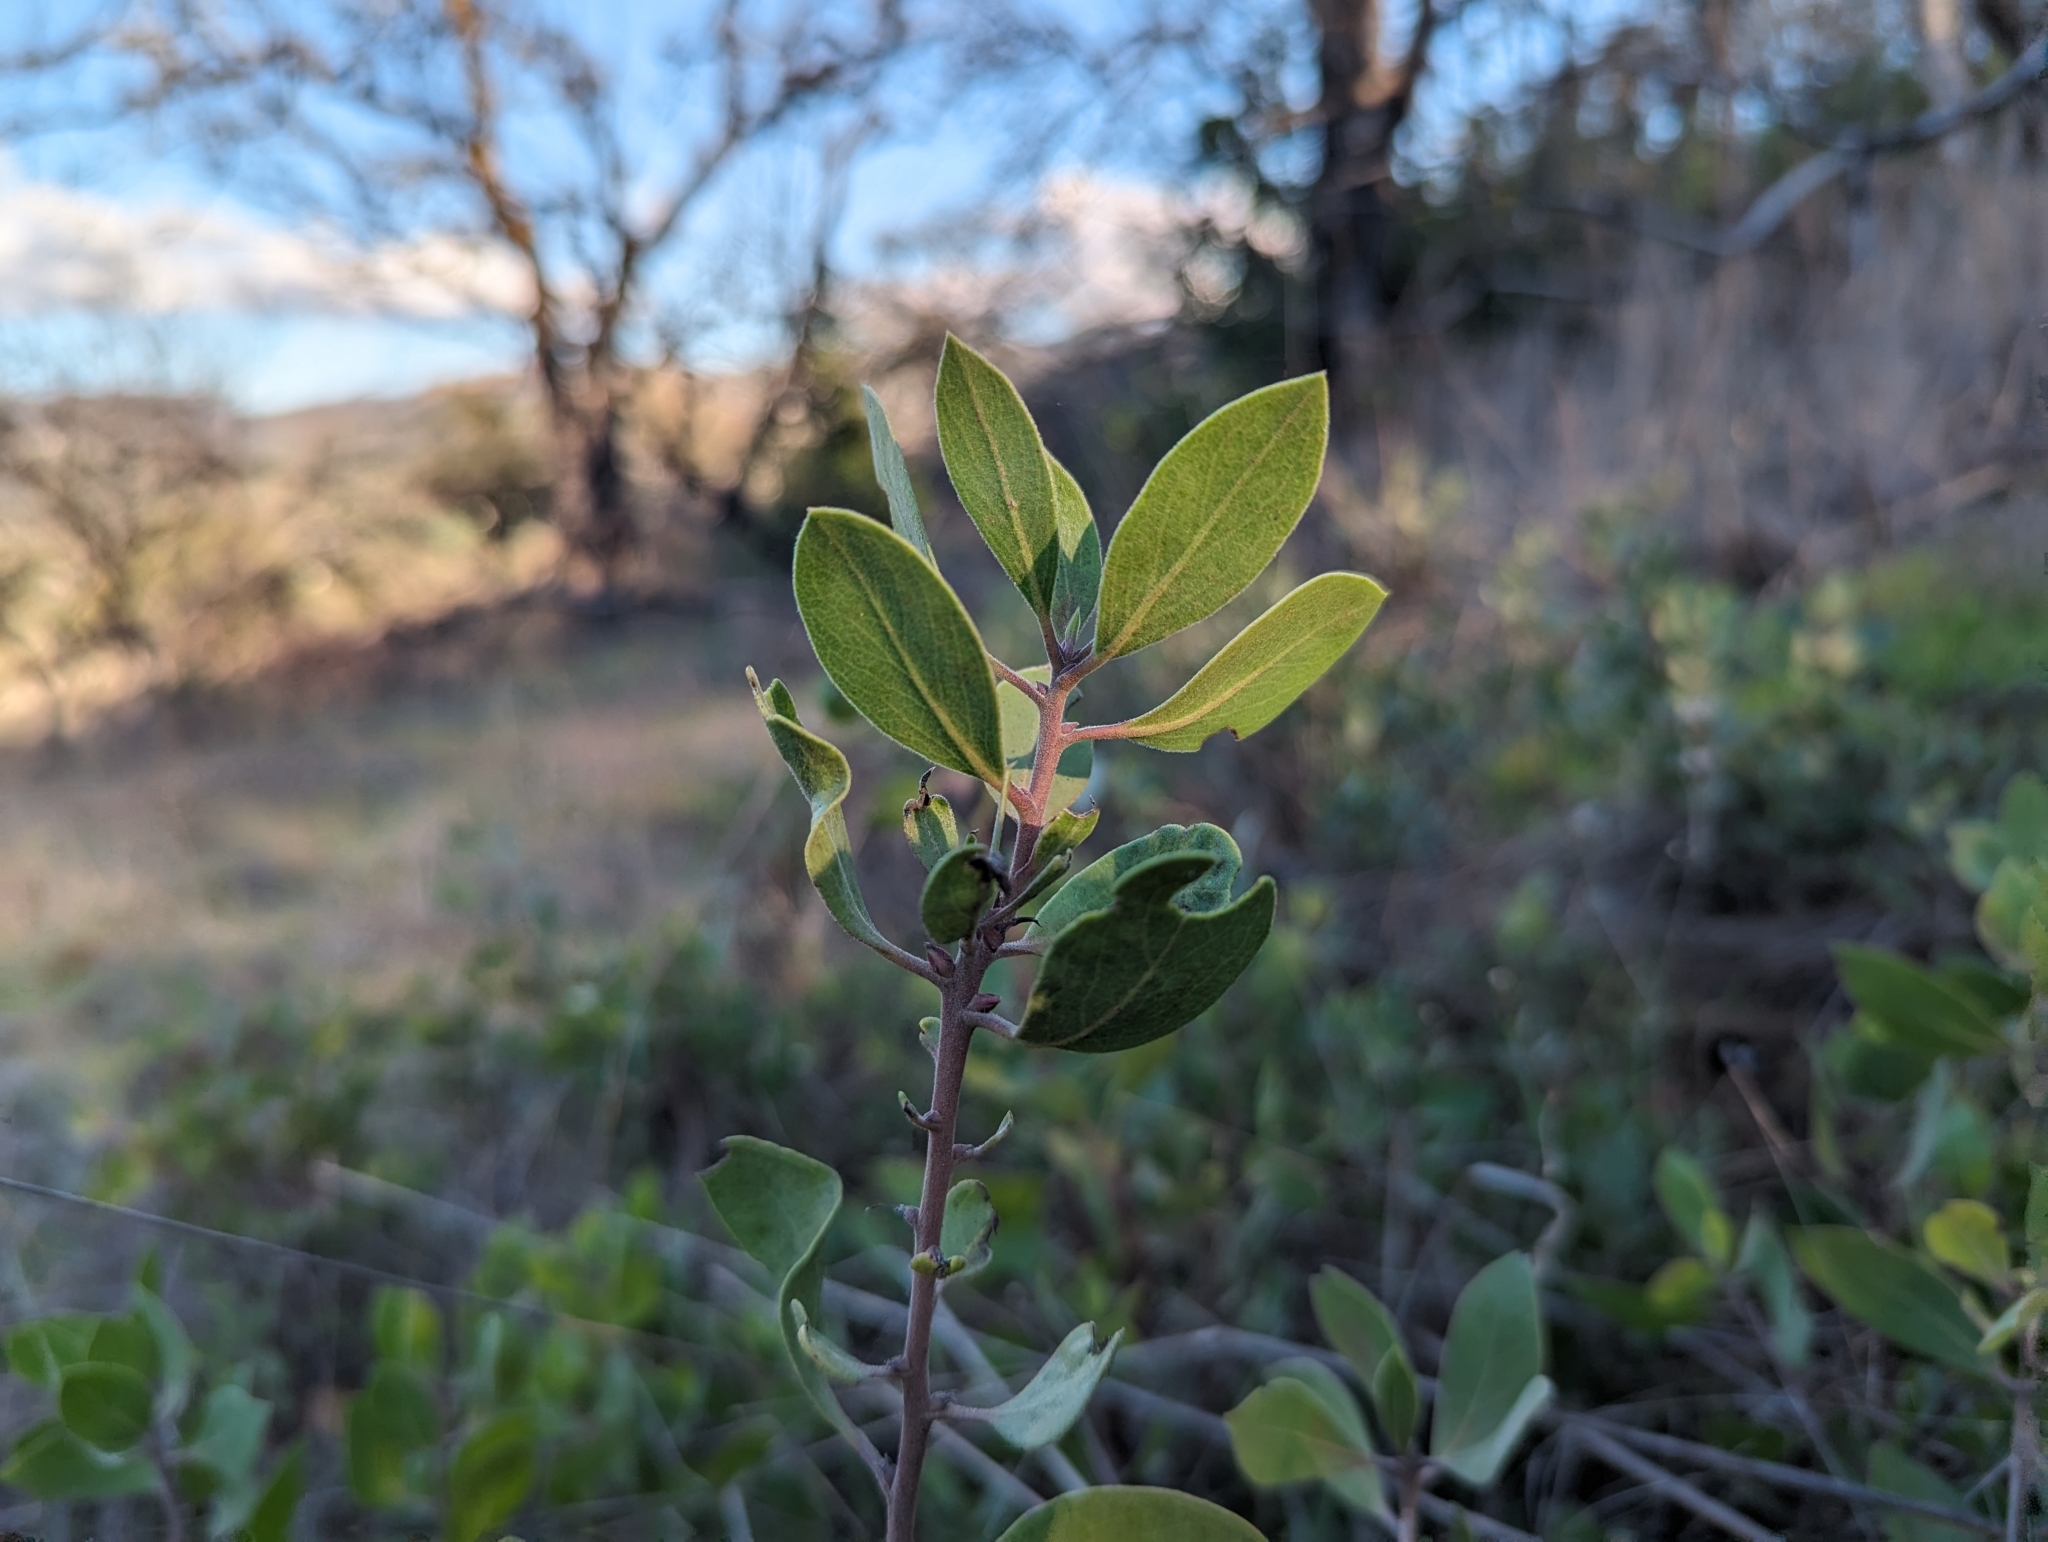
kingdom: Plantae
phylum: Tracheophyta
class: Magnoliopsida
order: Ericales
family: Ericaceae
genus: Arctostaphylos
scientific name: Arctostaphylos manzanita
